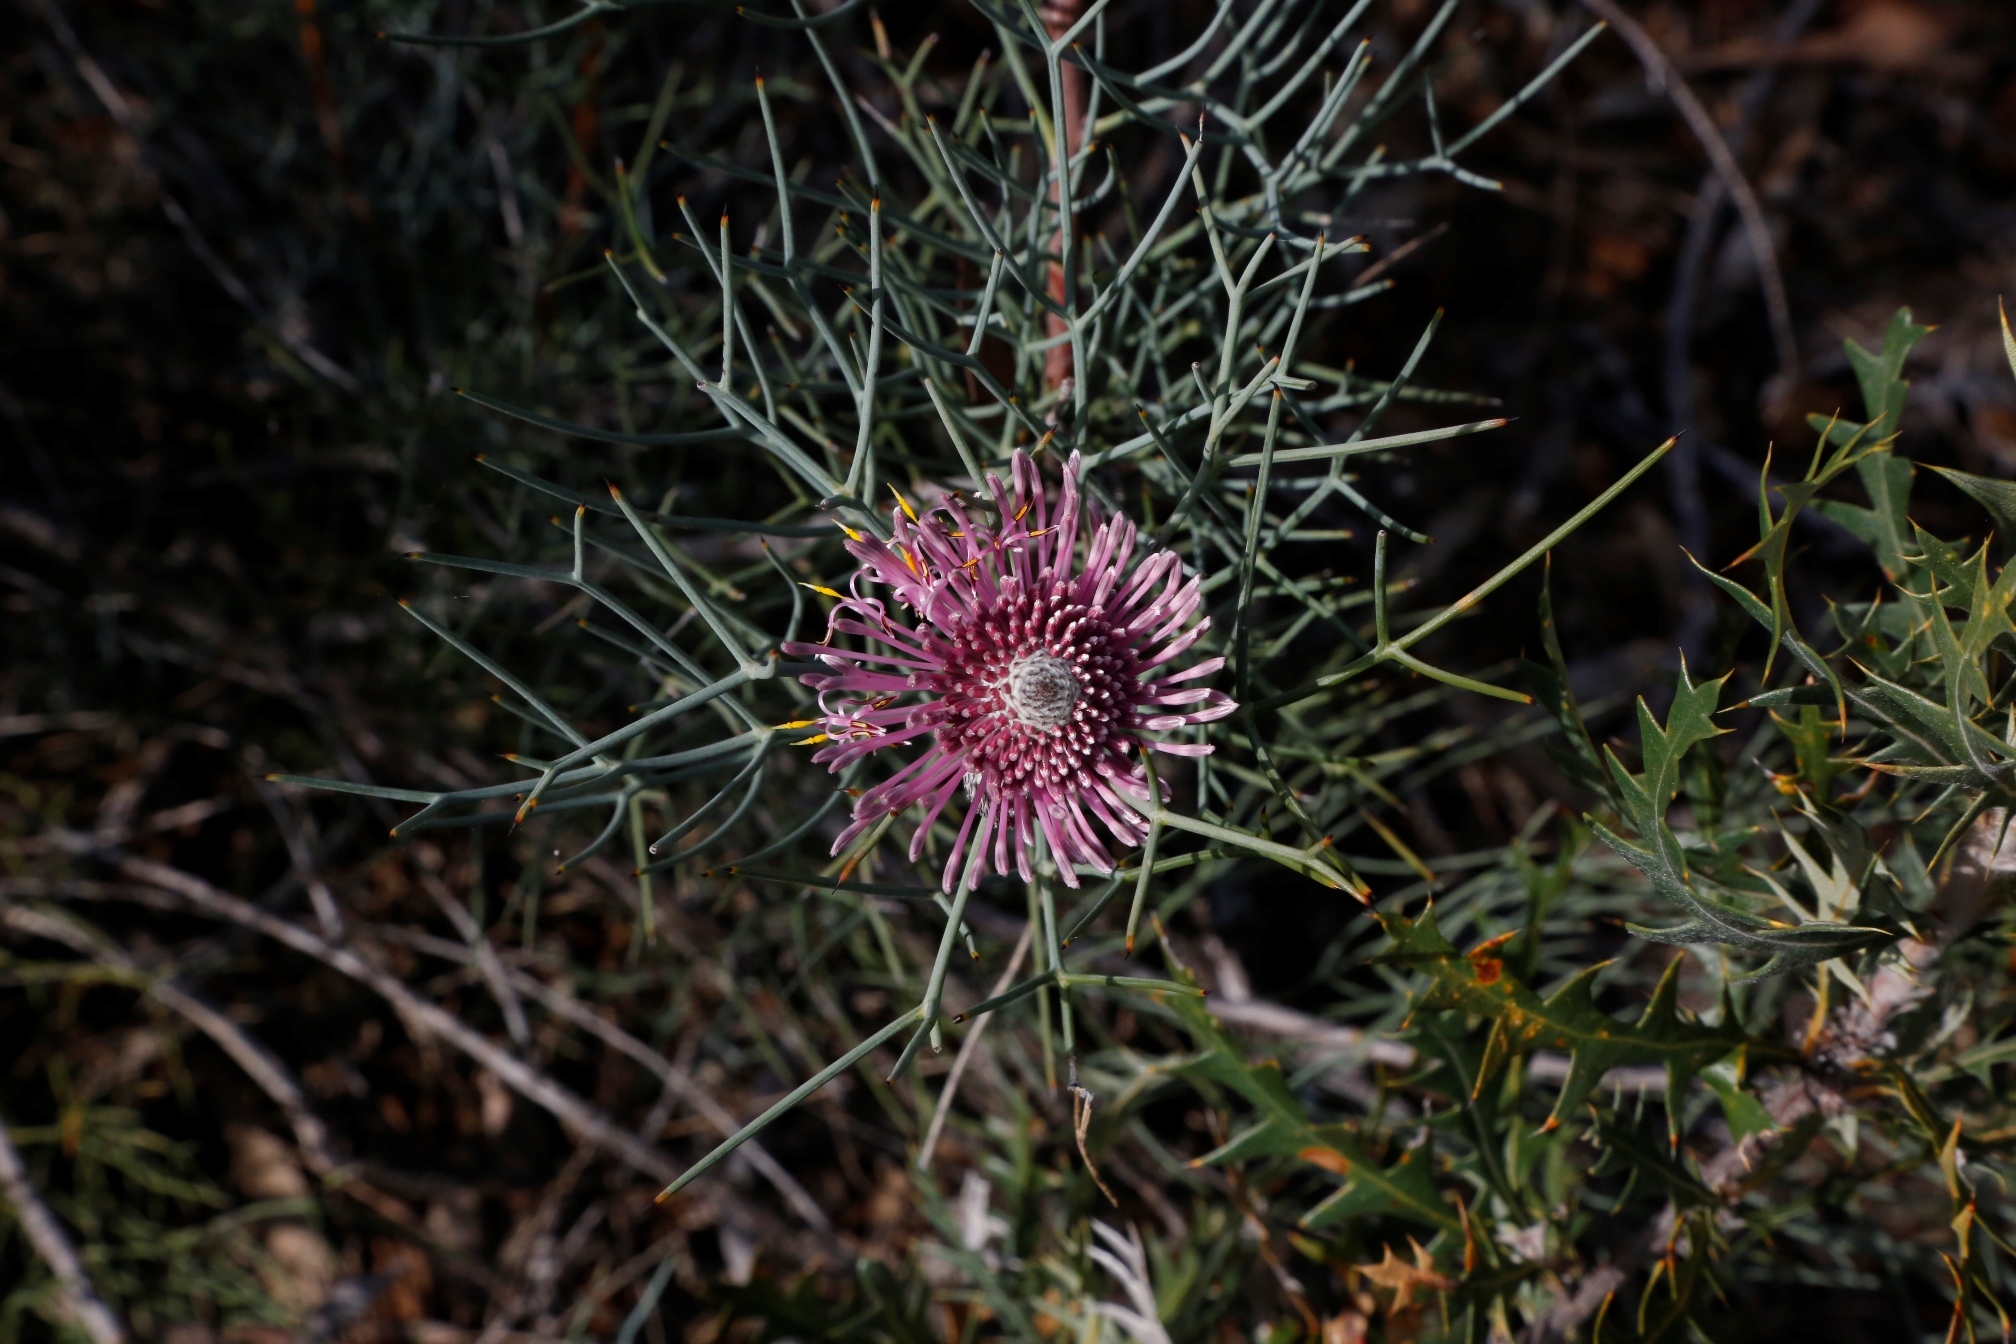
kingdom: Plantae
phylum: Tracheophyta
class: Magnoliopsida
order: Proteales
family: Proteaceae
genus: Isopogon
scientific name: Isopogon divergens
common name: Spreading-coneflower
